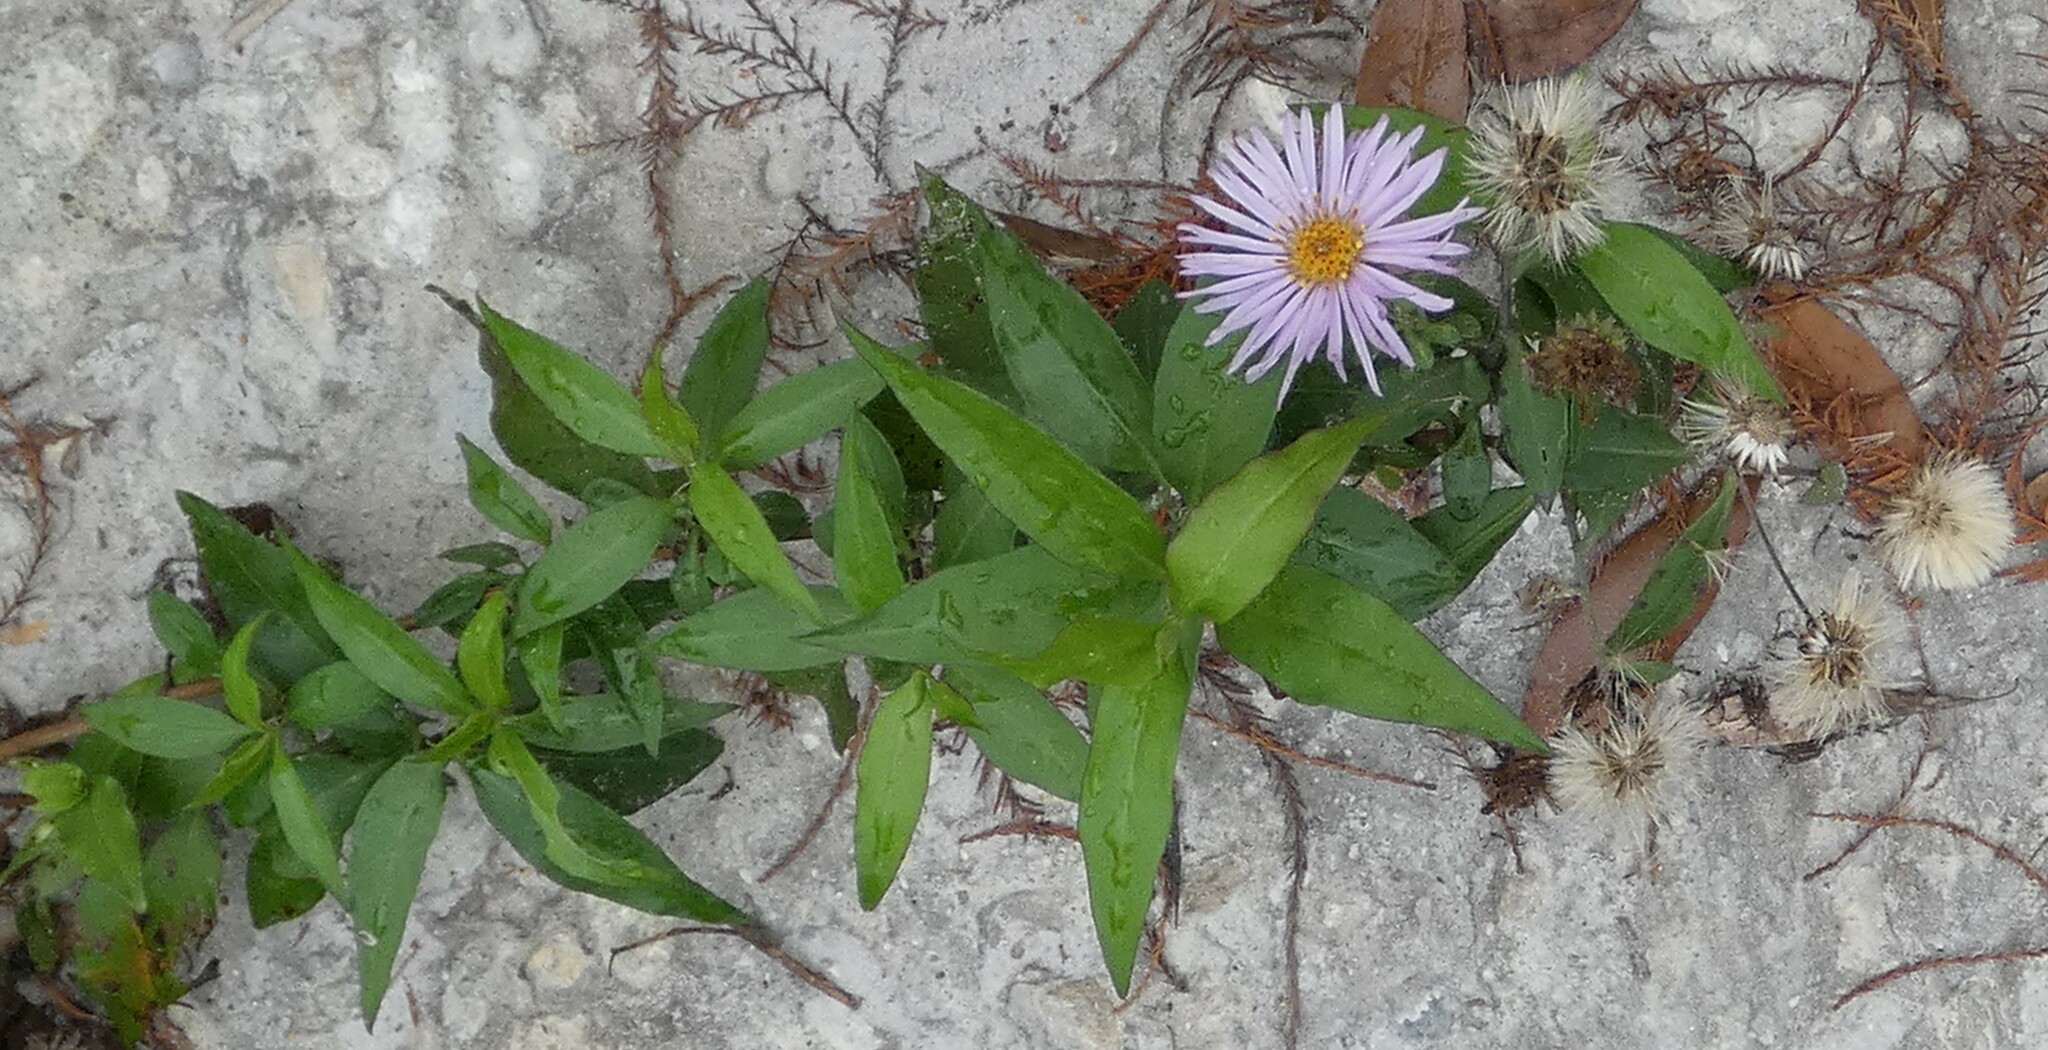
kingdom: Plantae
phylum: Tracheophyta
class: Magnoliopsida
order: Asterales
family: Asteraceae
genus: Ampelaster
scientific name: Ampelaster carolinianus
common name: Climbing aster
